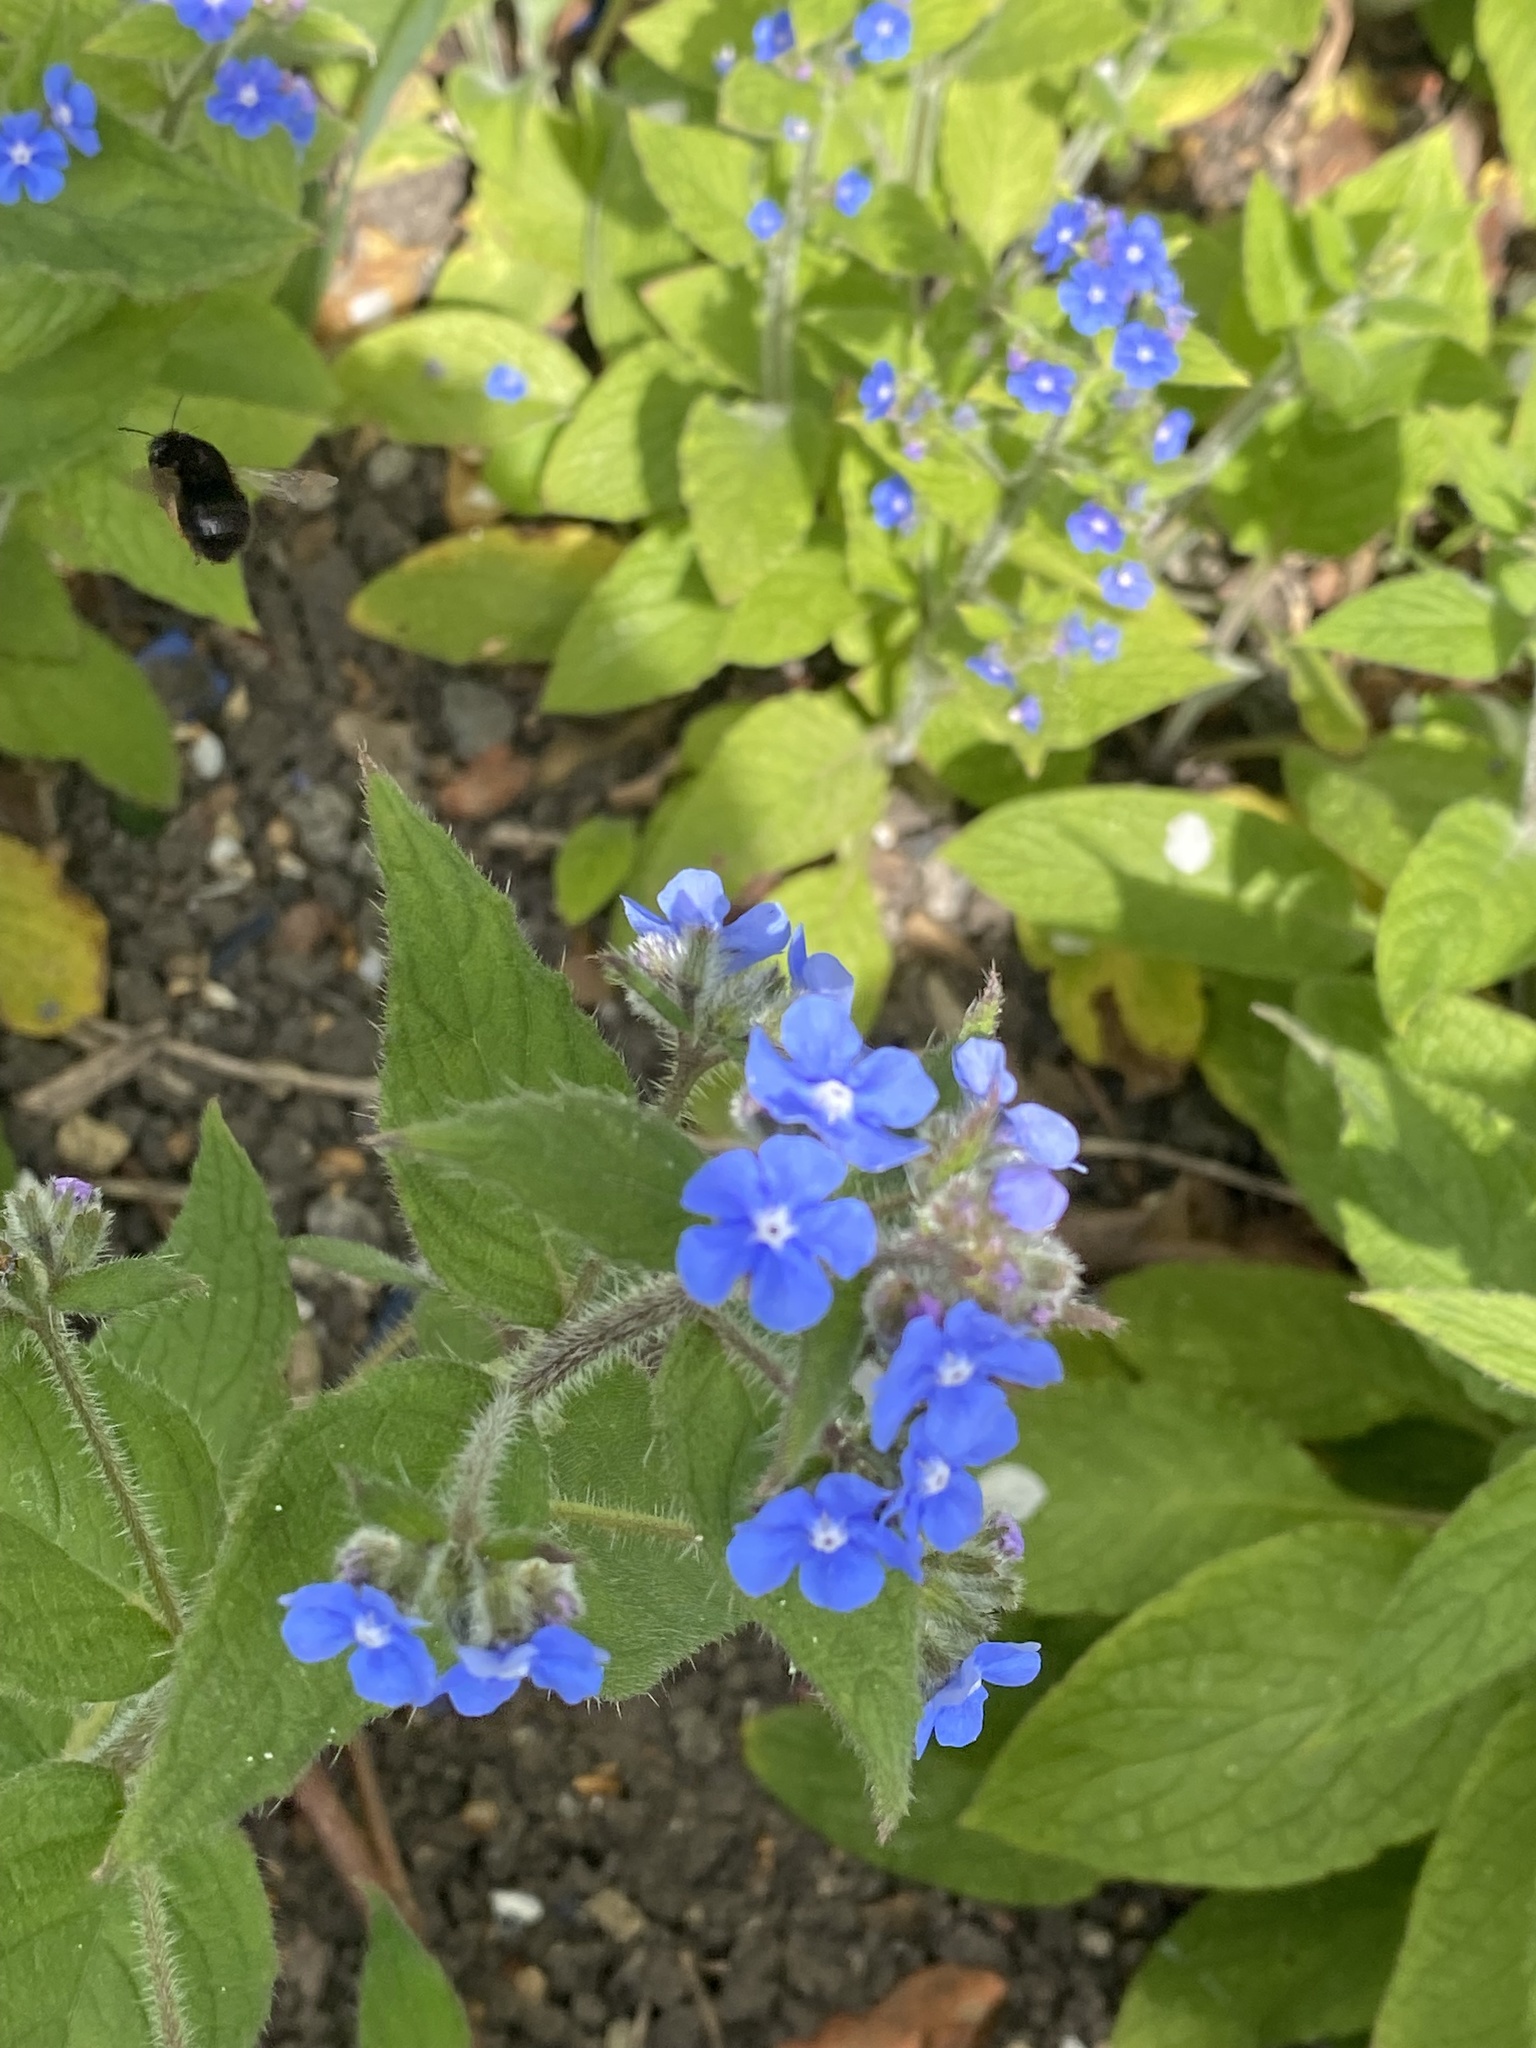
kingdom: Animalia
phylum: Arthropoda
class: Insecta
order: Hymenoptera
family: Apidae
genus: Anthophora
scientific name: Anthophora plumipes
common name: Hairy-footed flower bee
